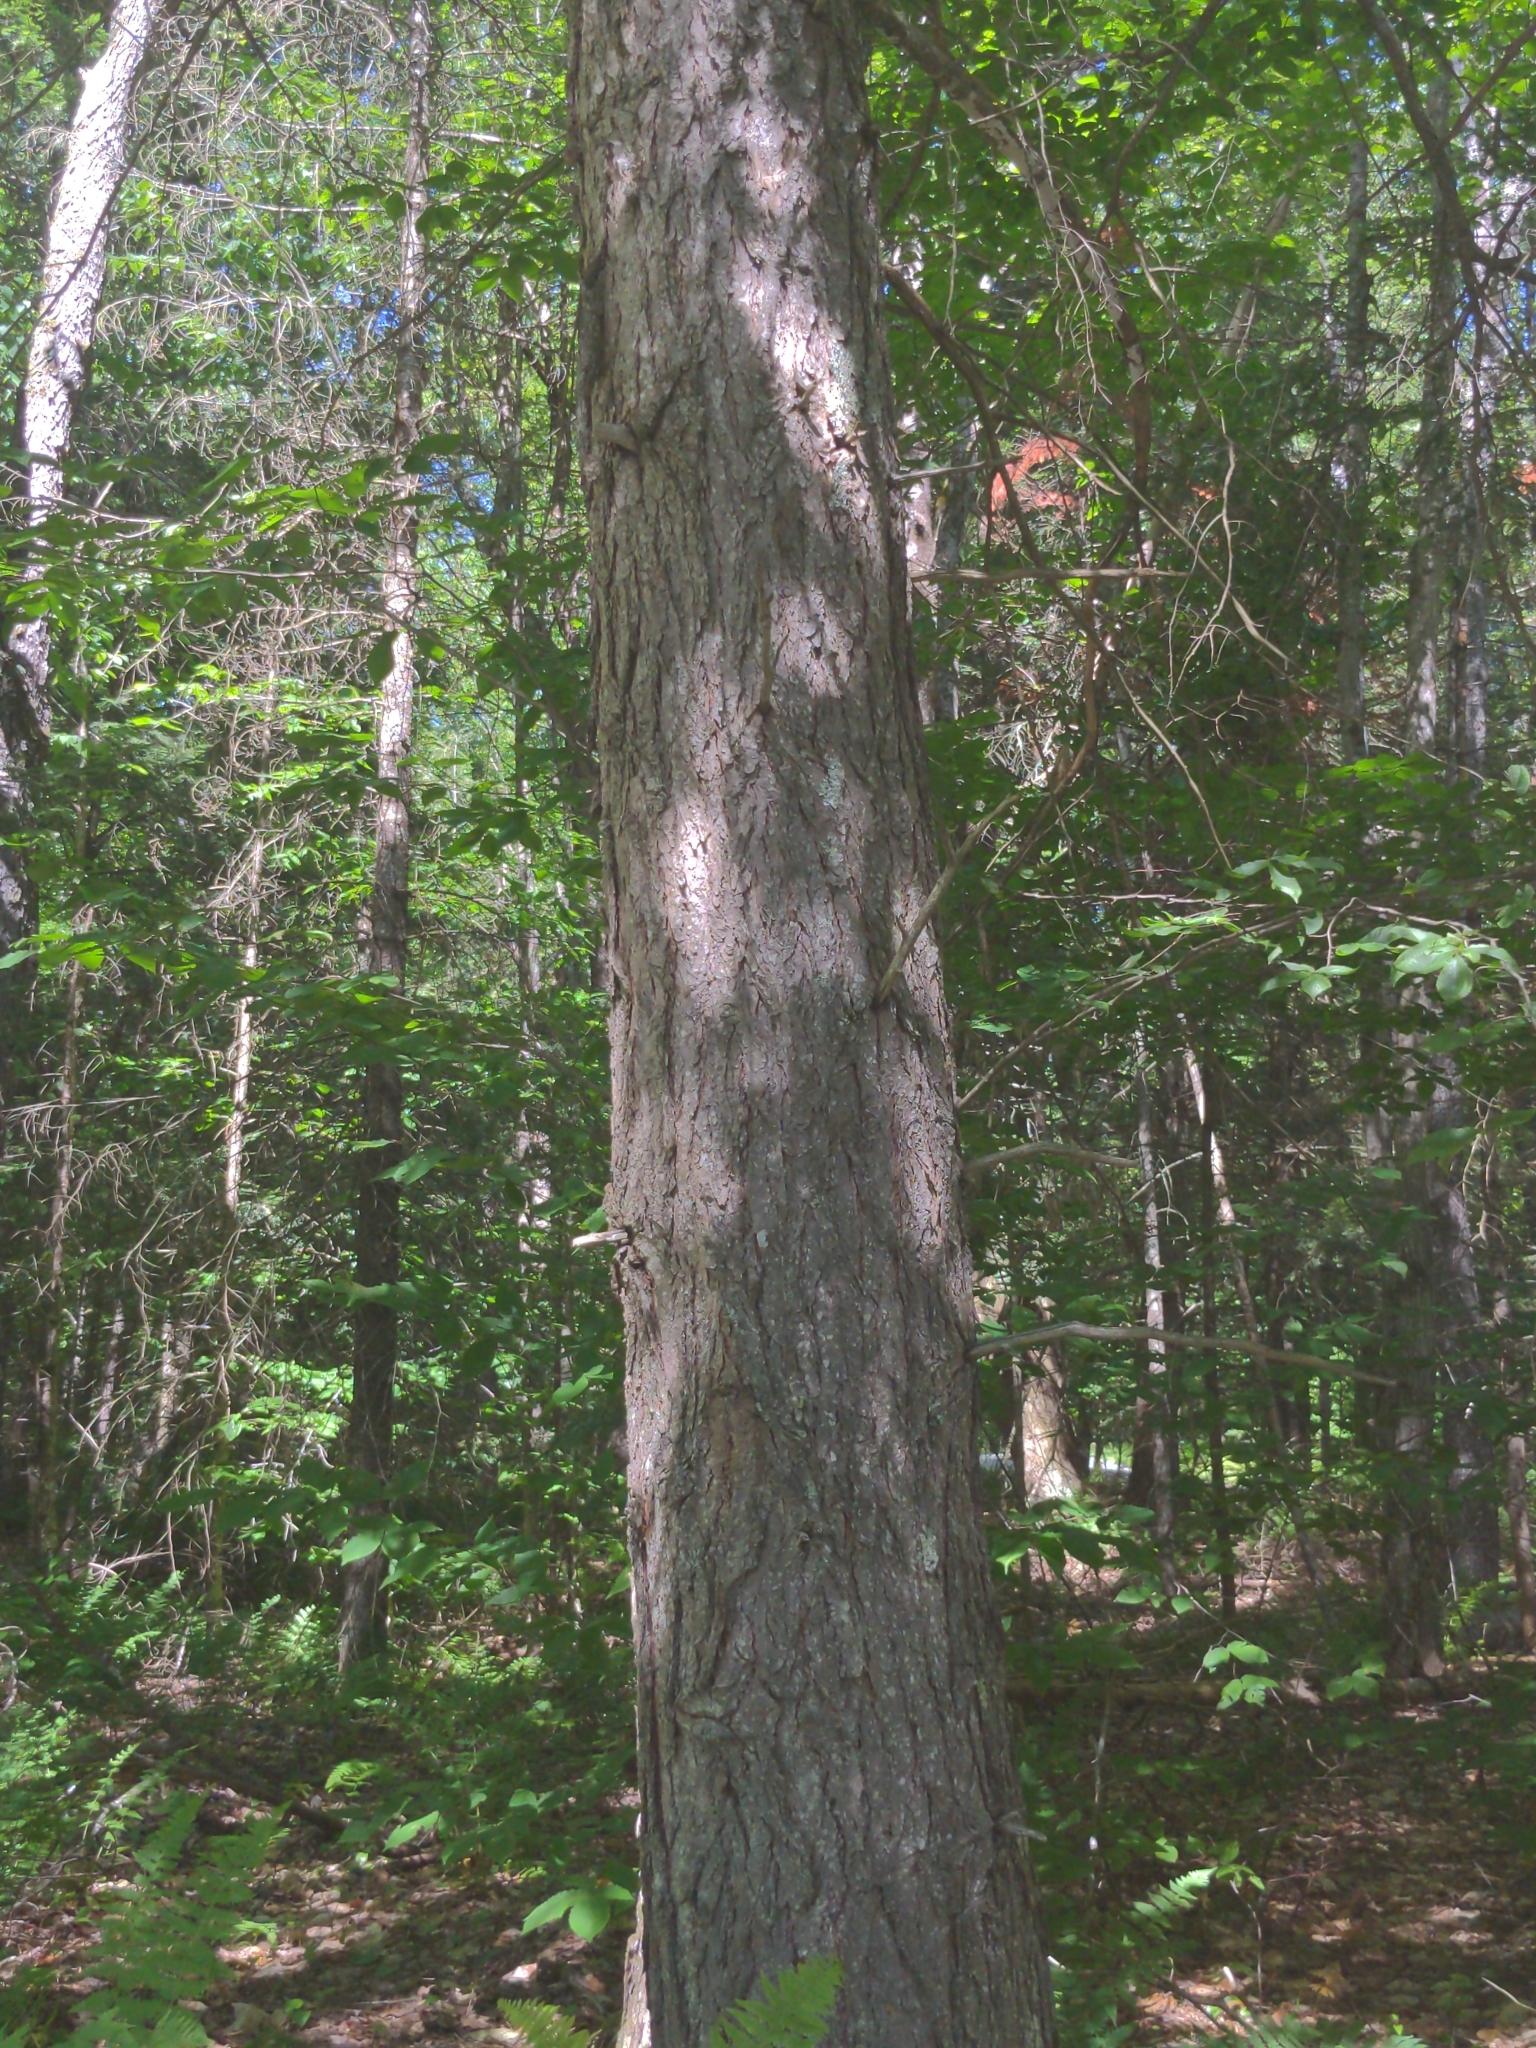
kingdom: Plantae
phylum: Tracheophyta
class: Pinopsida
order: Pinales
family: Pinaceae
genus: Tsuga
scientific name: Tsuga canadensis
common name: Eastern hemlock
